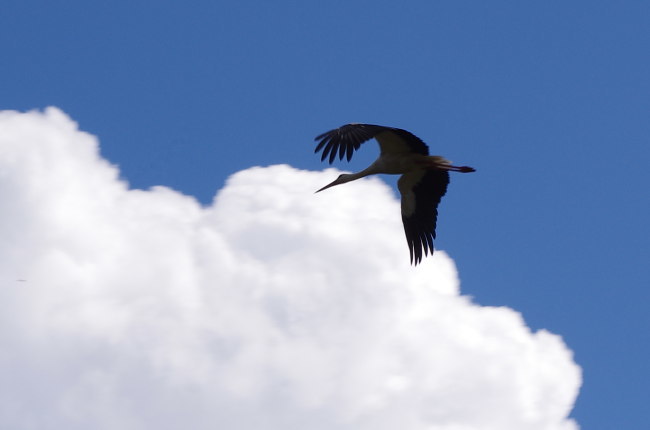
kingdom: Animalia
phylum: Chordata
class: Aves
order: Ciconiiformes
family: Ciconiidae
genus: Ciconia
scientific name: Ciconia ciconia
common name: White stork
